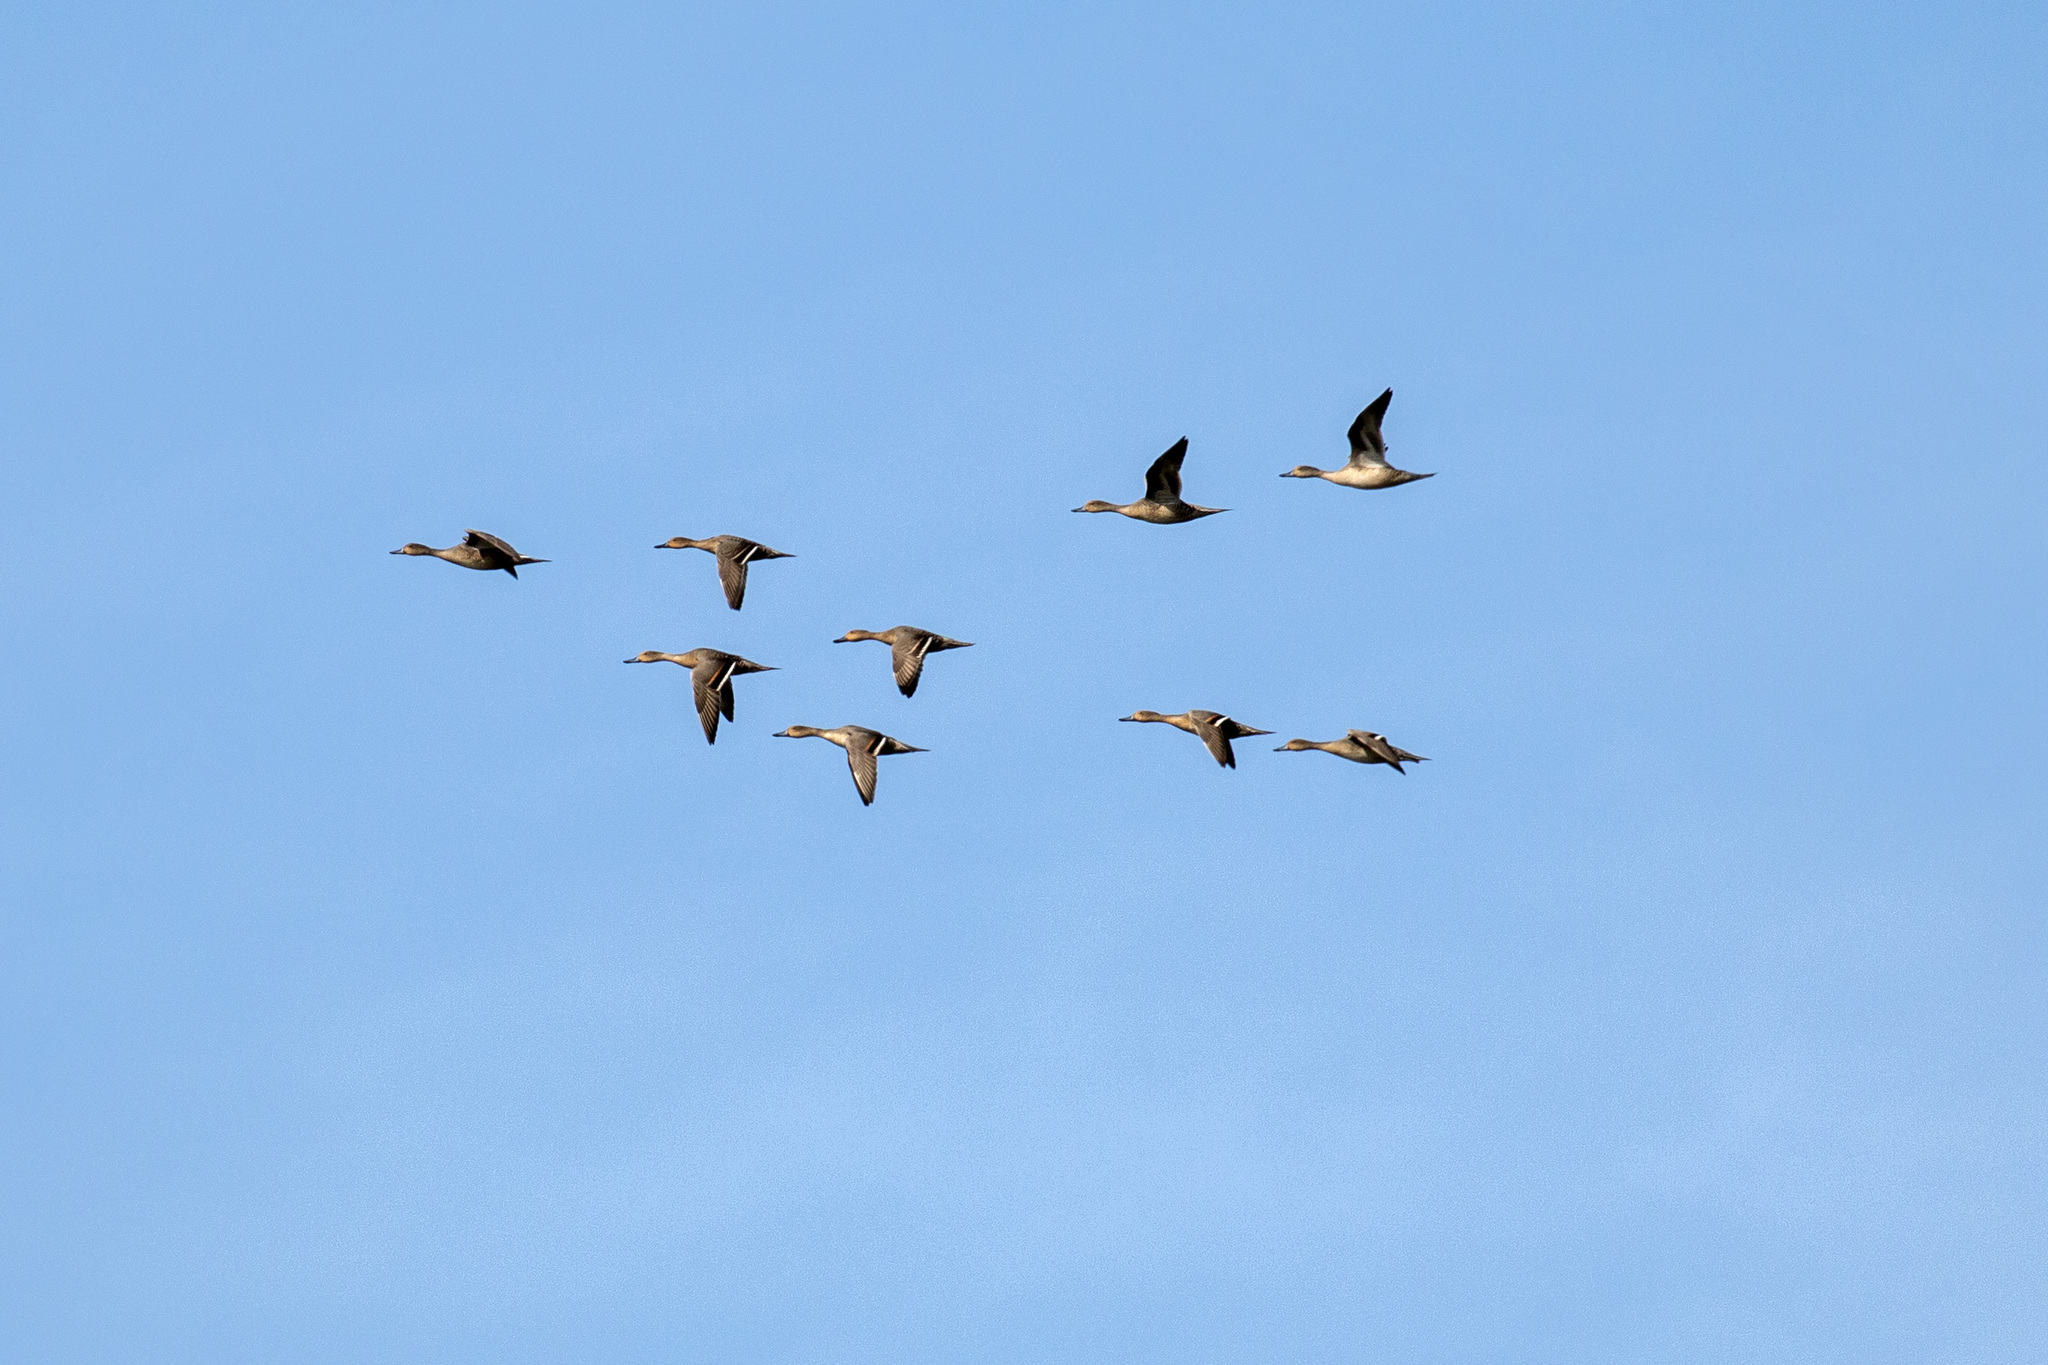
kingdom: Animalia
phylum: Chordata
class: Aves
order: Anseriformes
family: Anatidae
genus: Anas
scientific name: Anas acuta
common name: Northern pintail
